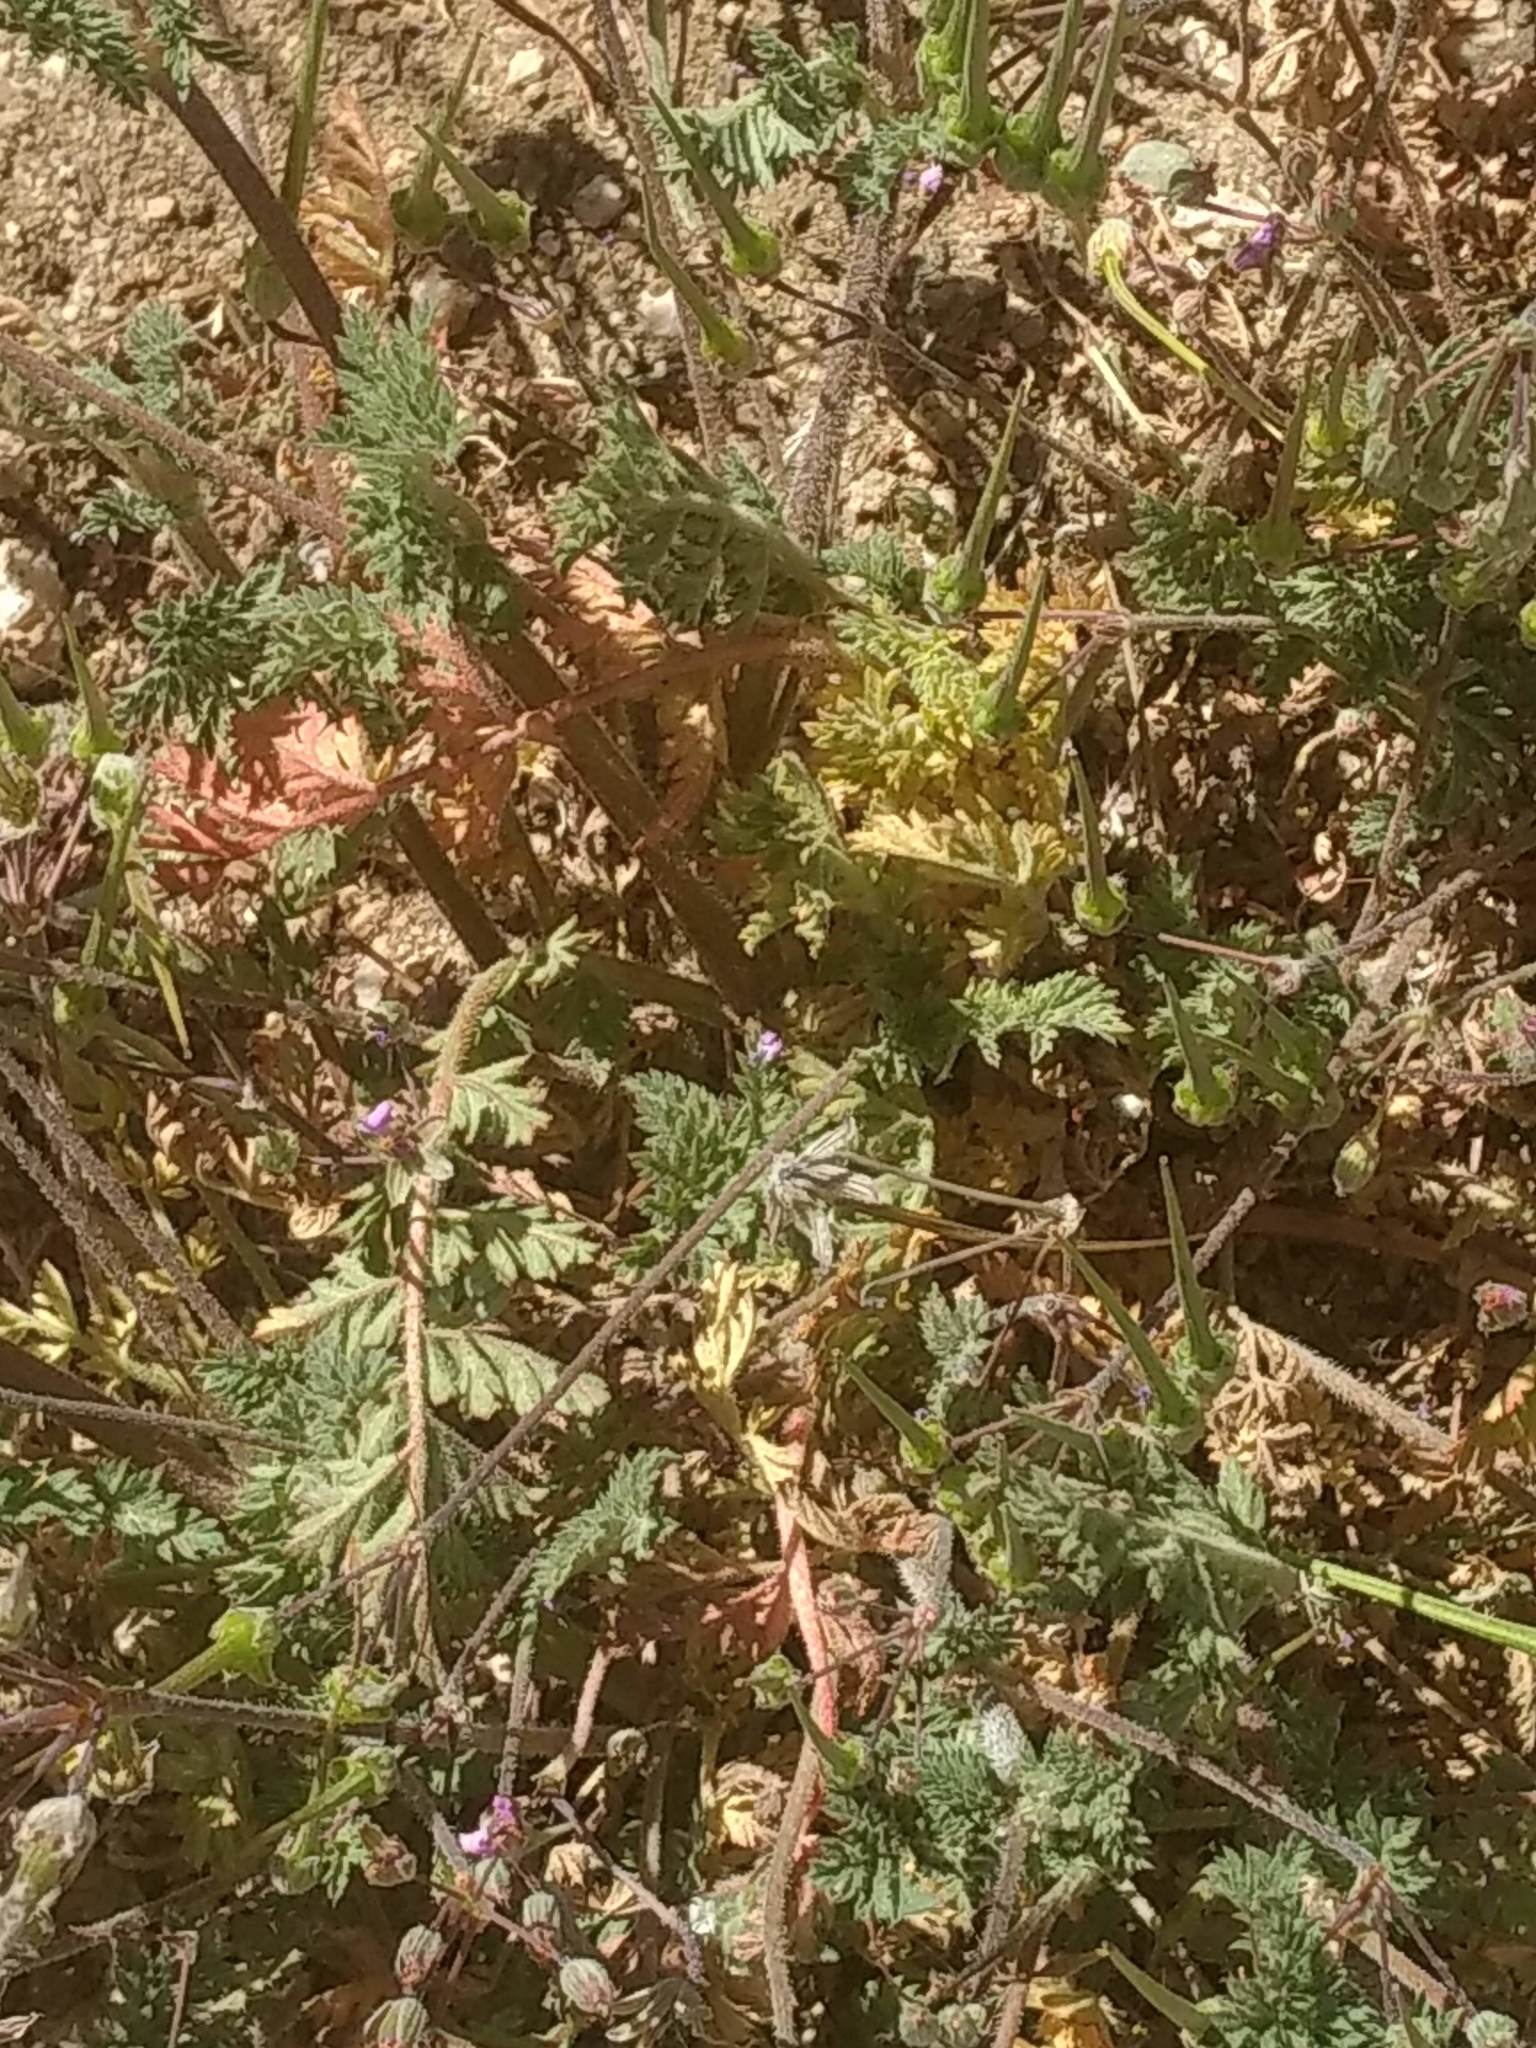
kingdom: Plantae
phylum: Tracheophyta
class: Magnoliopsida
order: Geraniales
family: Geraniaceae
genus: Erodium
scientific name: Erodium cicutarium
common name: Common stork's-bill
